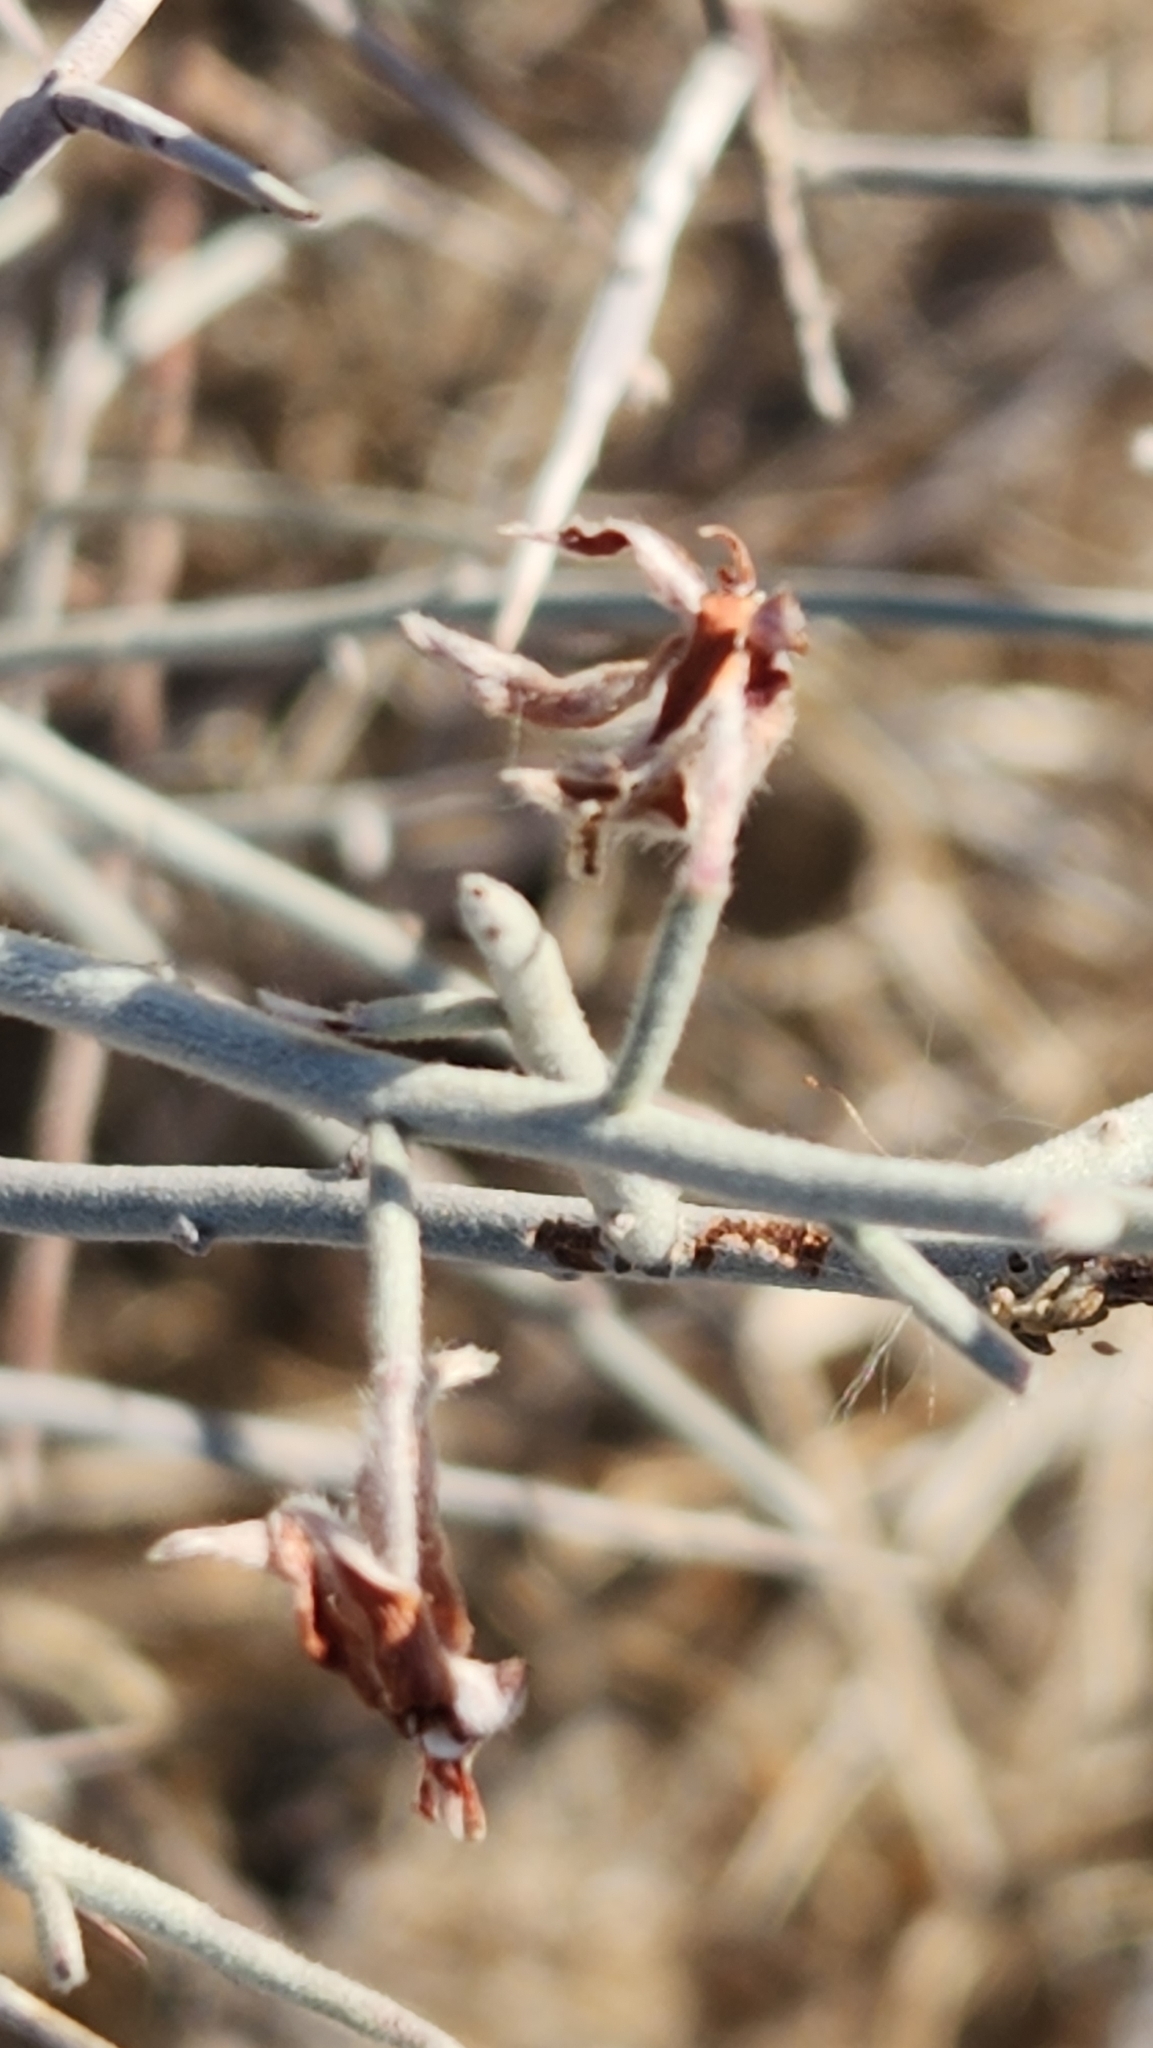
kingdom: Plantae
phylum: Tracheophyta
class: Magnoliopsida
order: Zygophyllales
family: Krameriaceae
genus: Krameria
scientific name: Krameria bicolor
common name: White ratany
